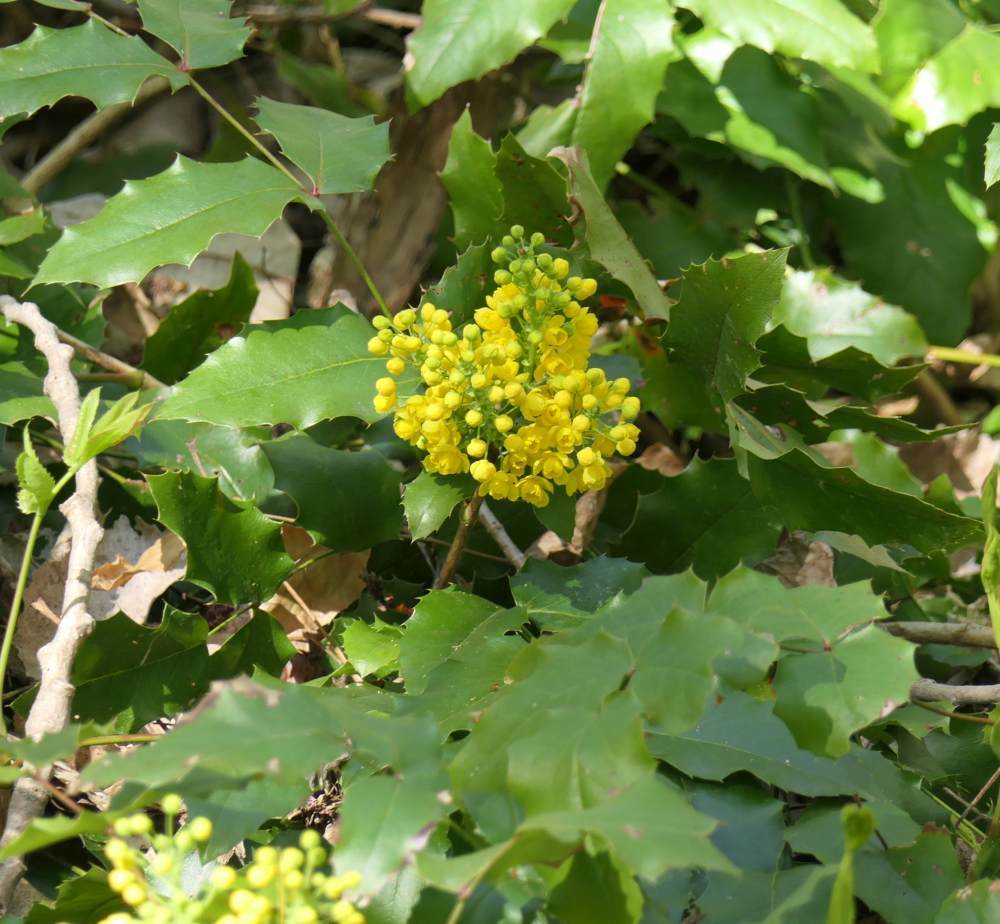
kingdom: Plantae
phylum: Tracheophyta
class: Magnoliopsida
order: Ranunculales
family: Berberidaceae
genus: Mahonia
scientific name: Mahonia aquifolium
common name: Oregon-grape
